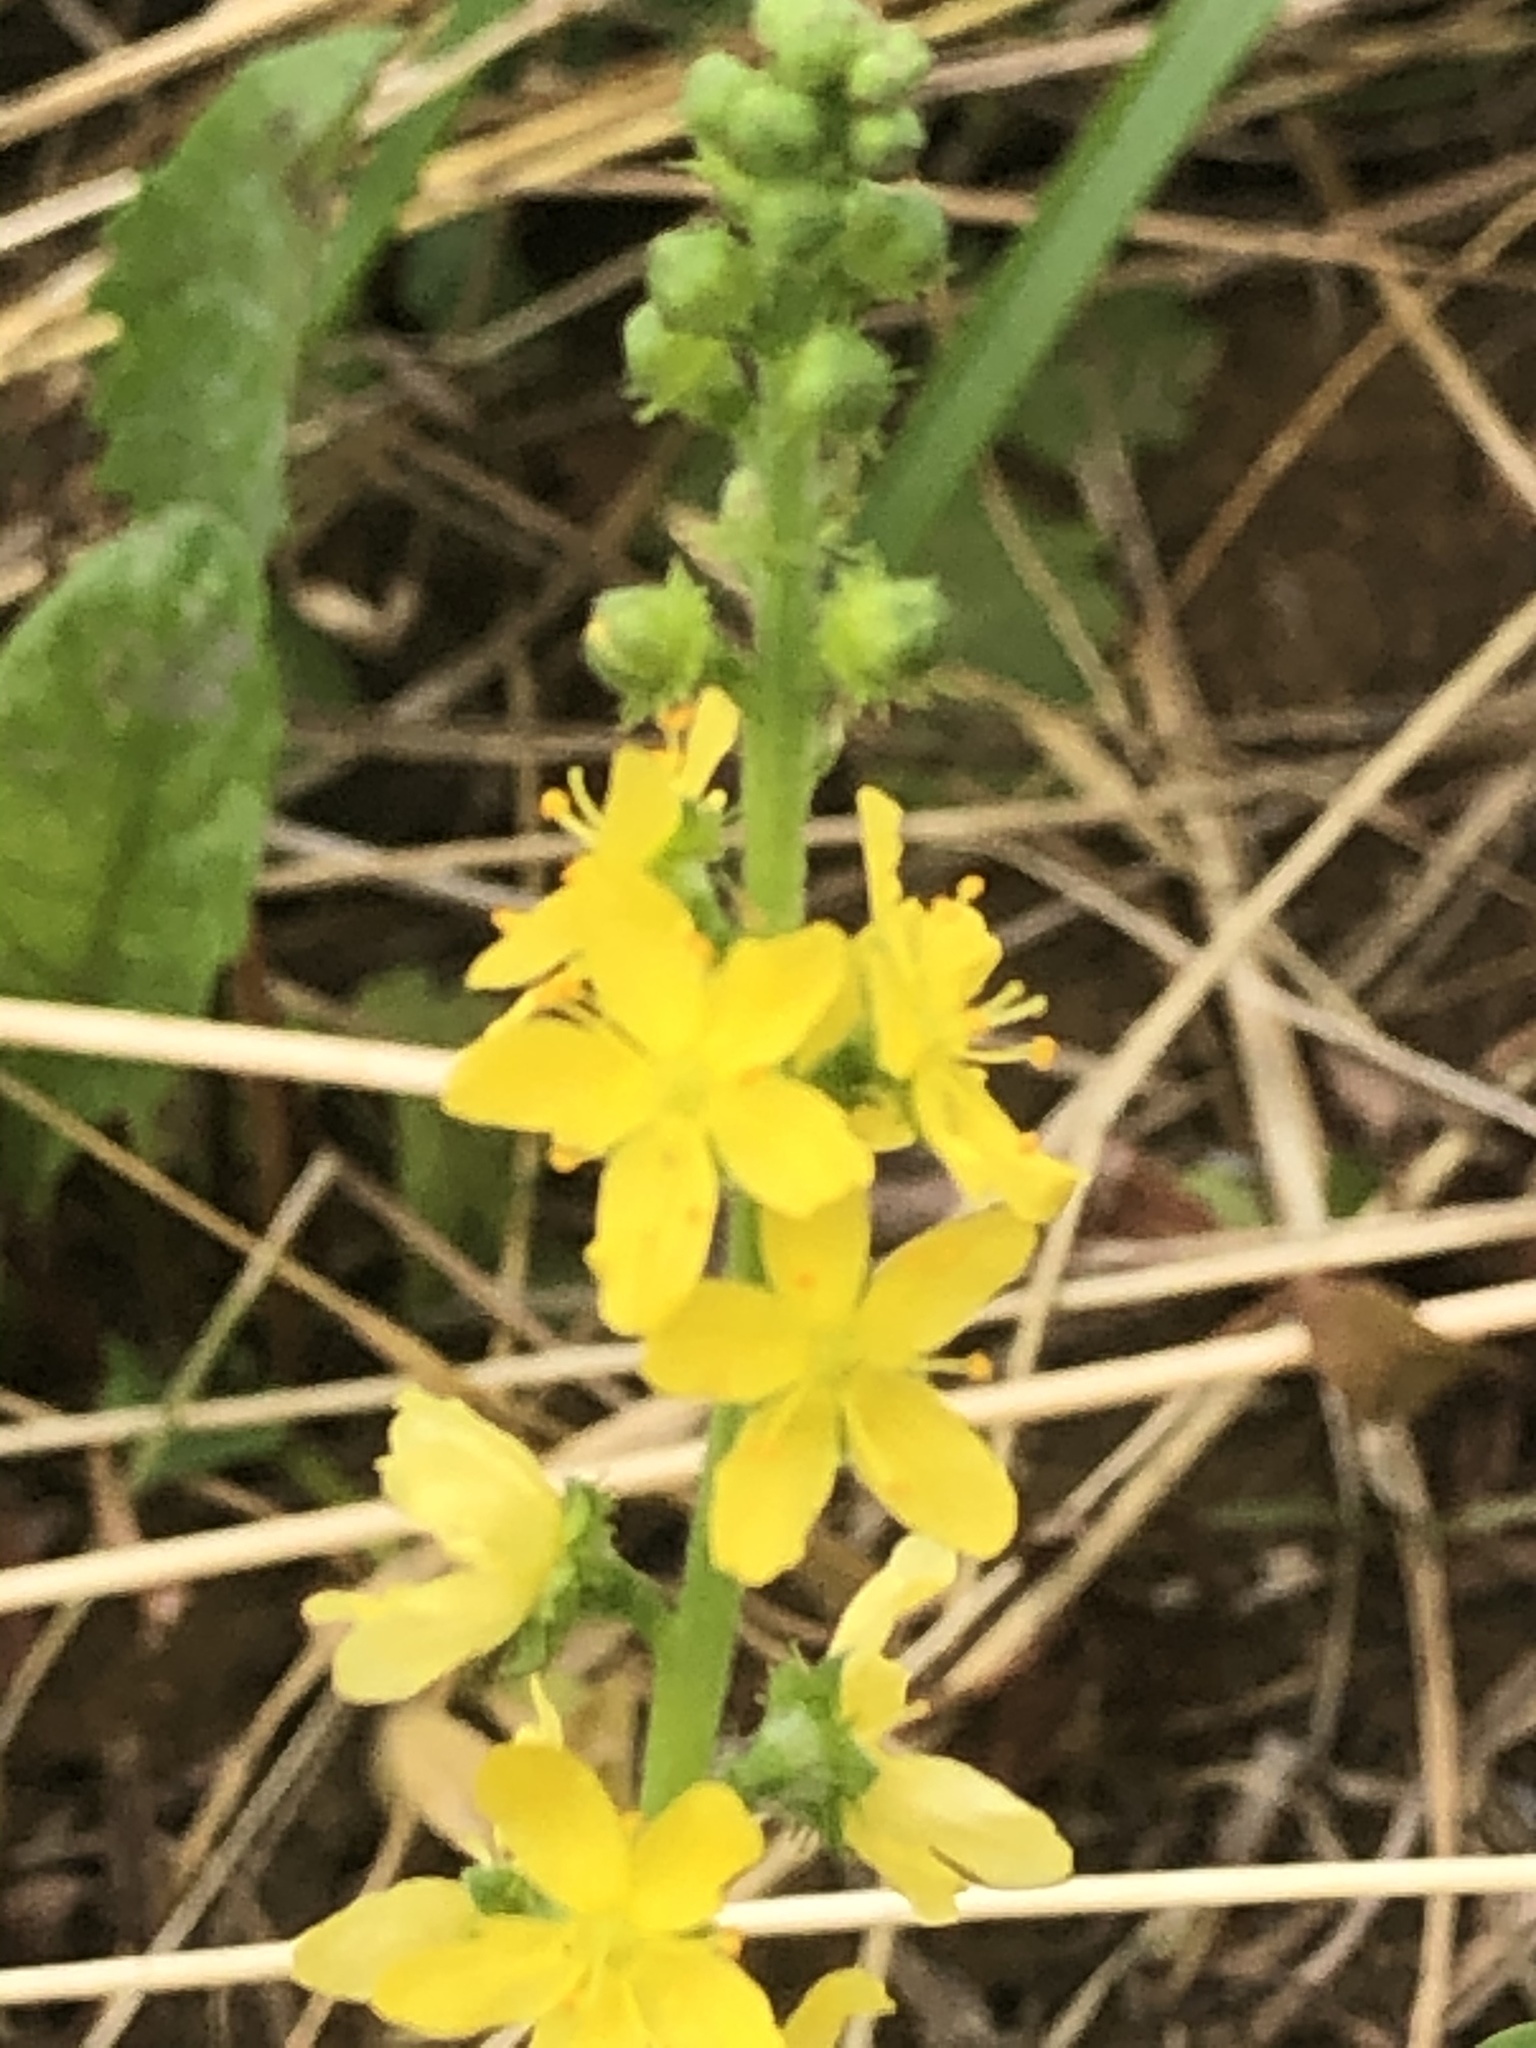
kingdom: Plantae
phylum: Tracheophyta
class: Magnoliopsida
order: Rosales
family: Rosaceae
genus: Agrimonia
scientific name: Agrimonia eupatoria
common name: Agrimony
